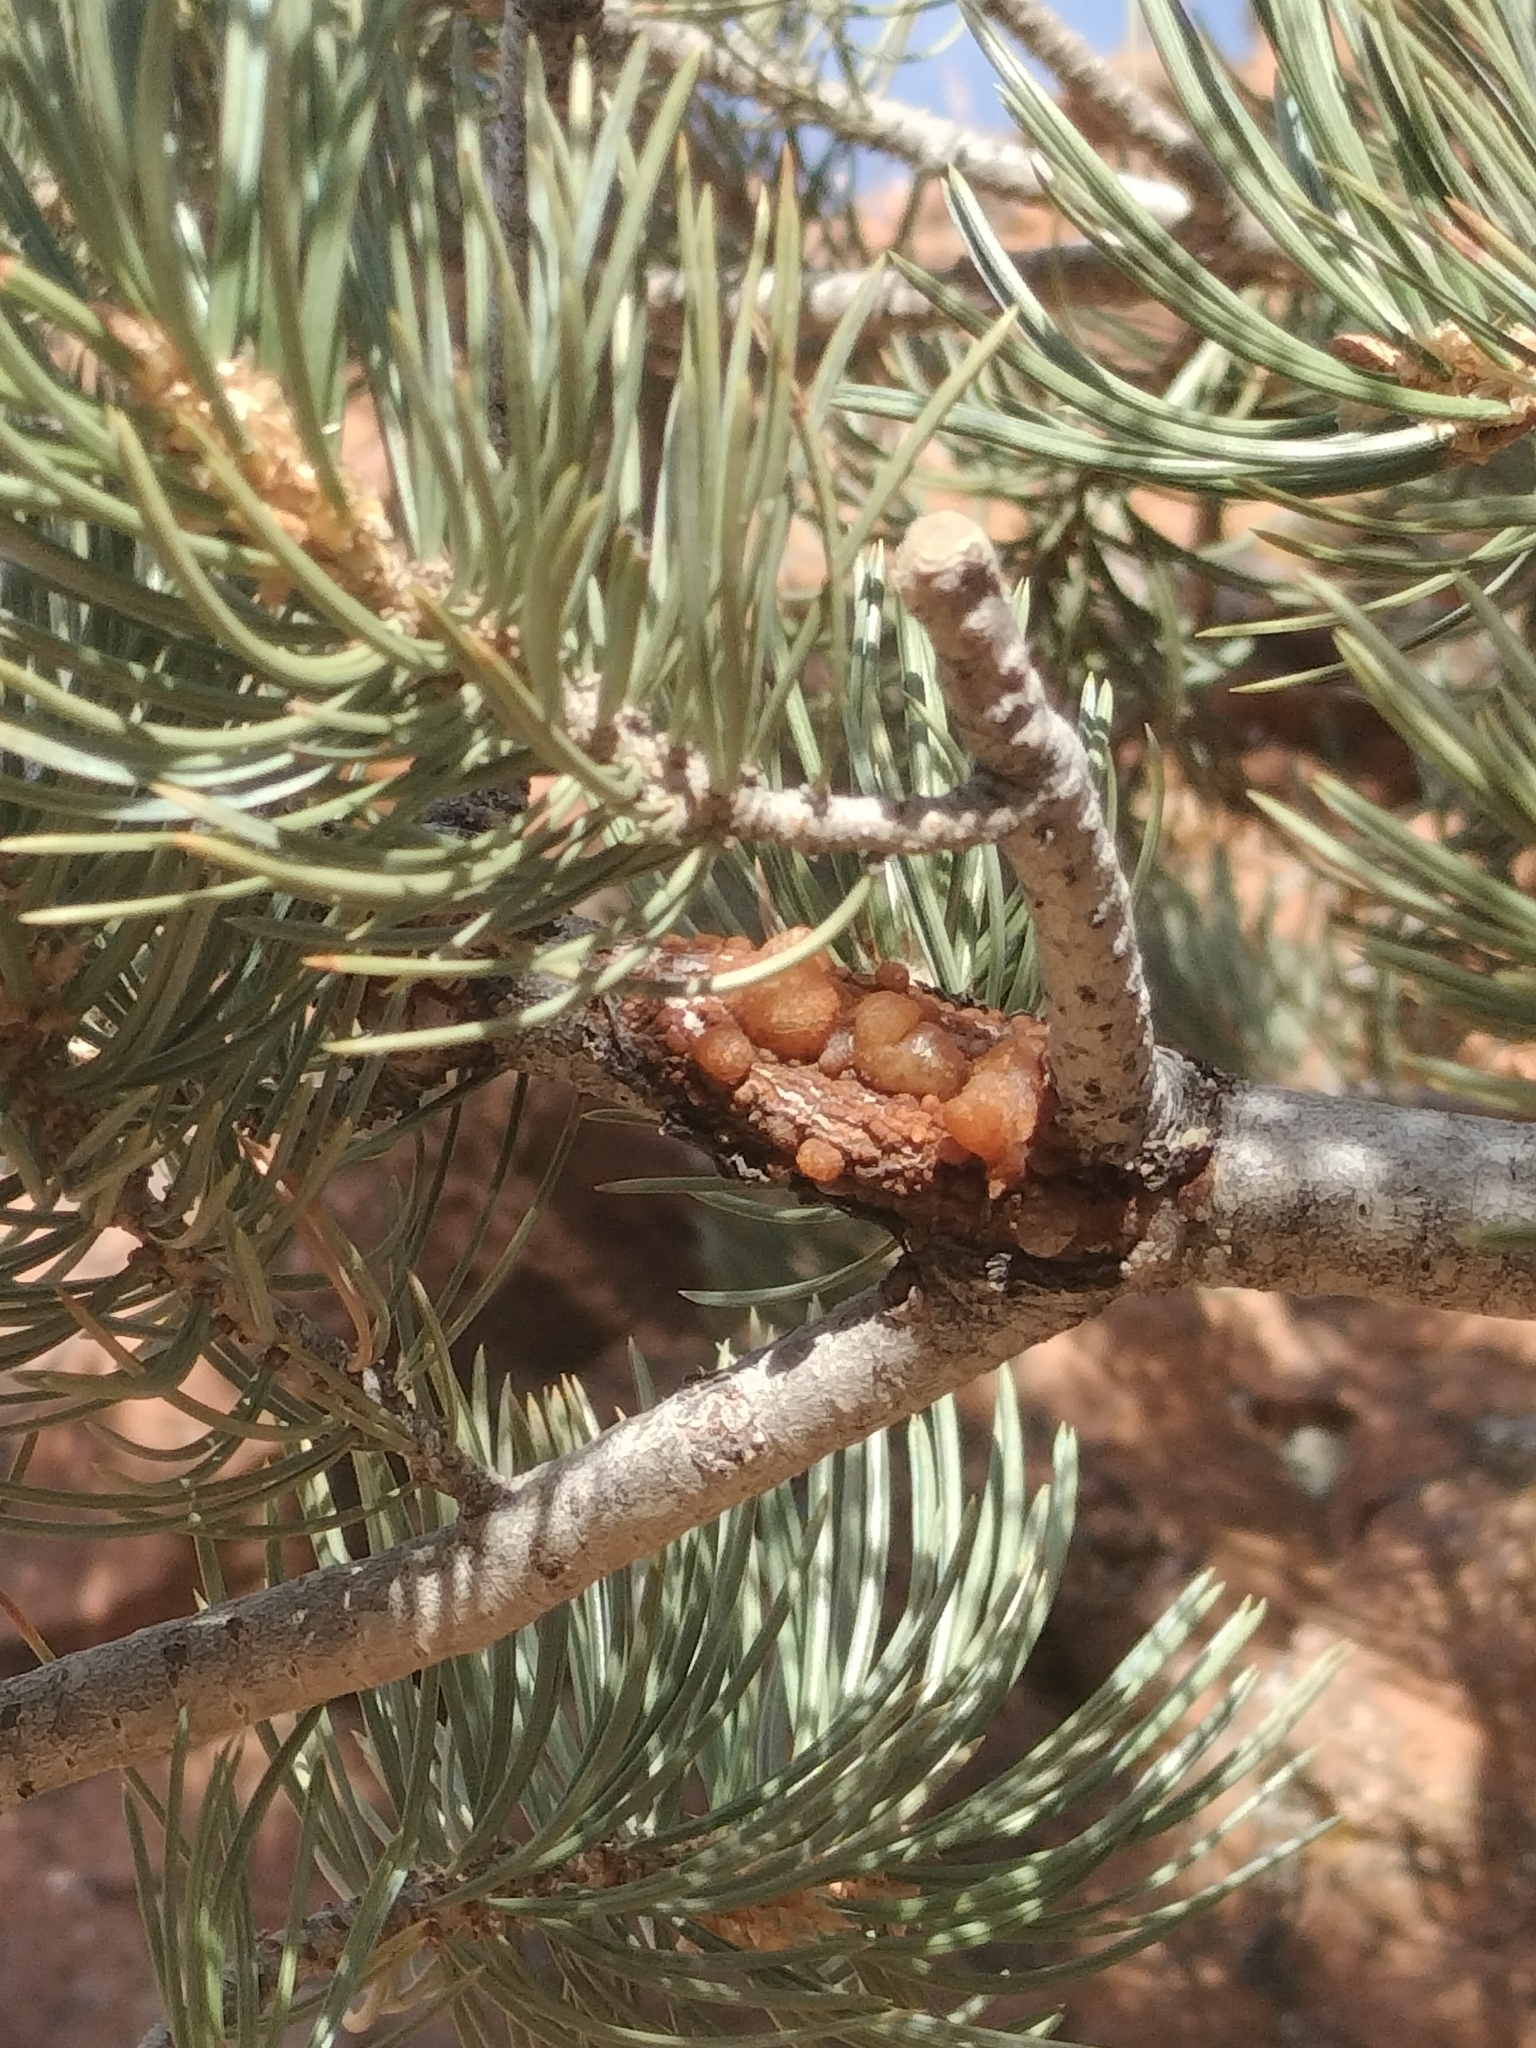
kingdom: Plantae
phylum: Tracheophyta
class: Pinopsida
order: Pinales
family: Pinaceae
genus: Pinus
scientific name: Pinus edulis
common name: Colorado pinyon
